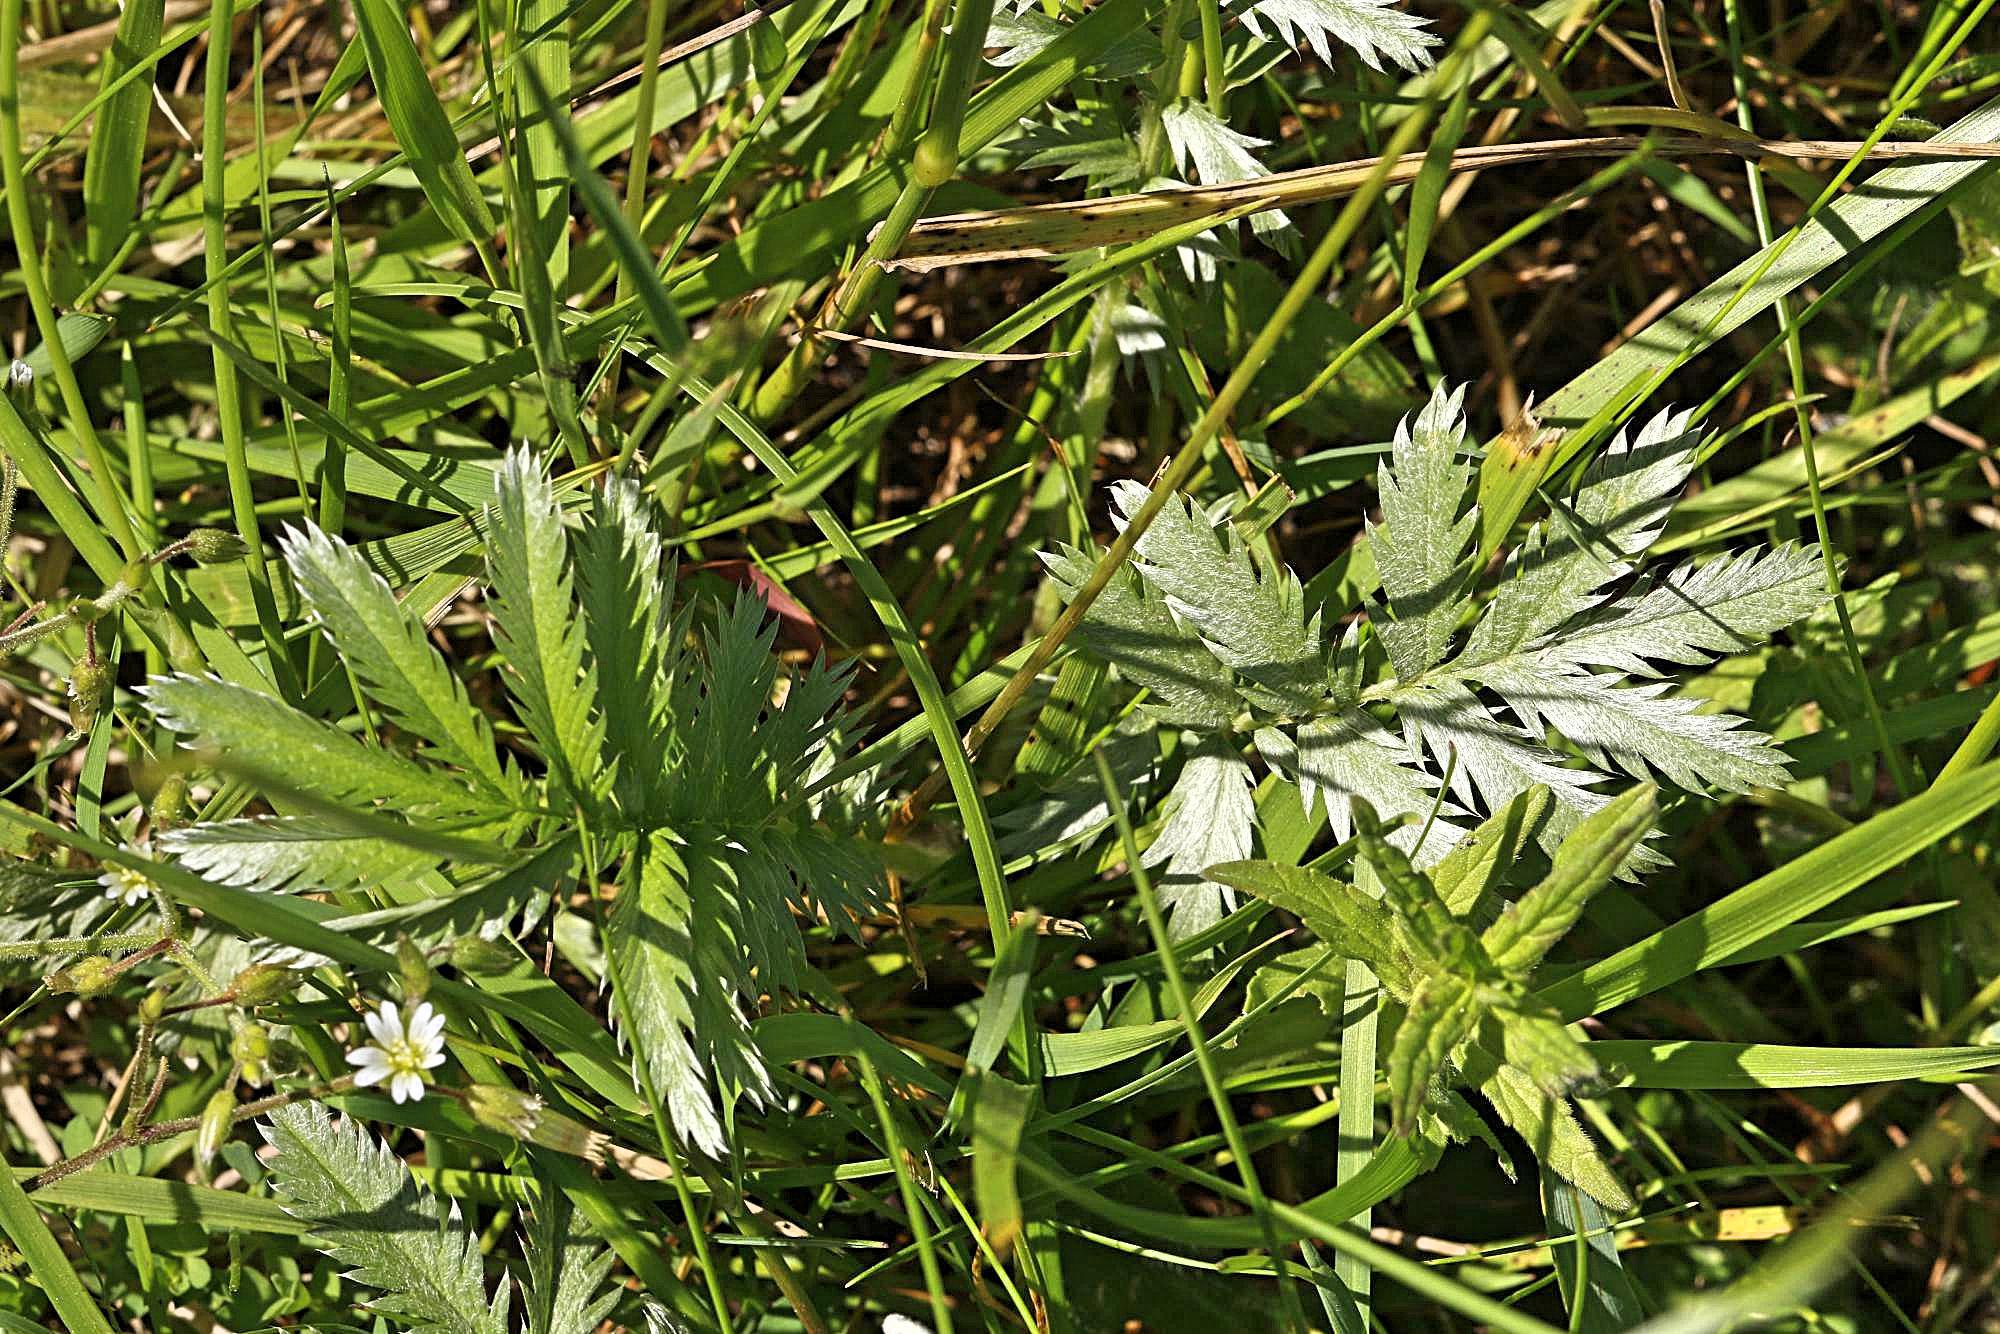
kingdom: Plantae
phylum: Tracheophyta
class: Magnoliopsida
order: Rosales
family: Rosaceae
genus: Argentina
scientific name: Argentina anserina
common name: Common silverweed
